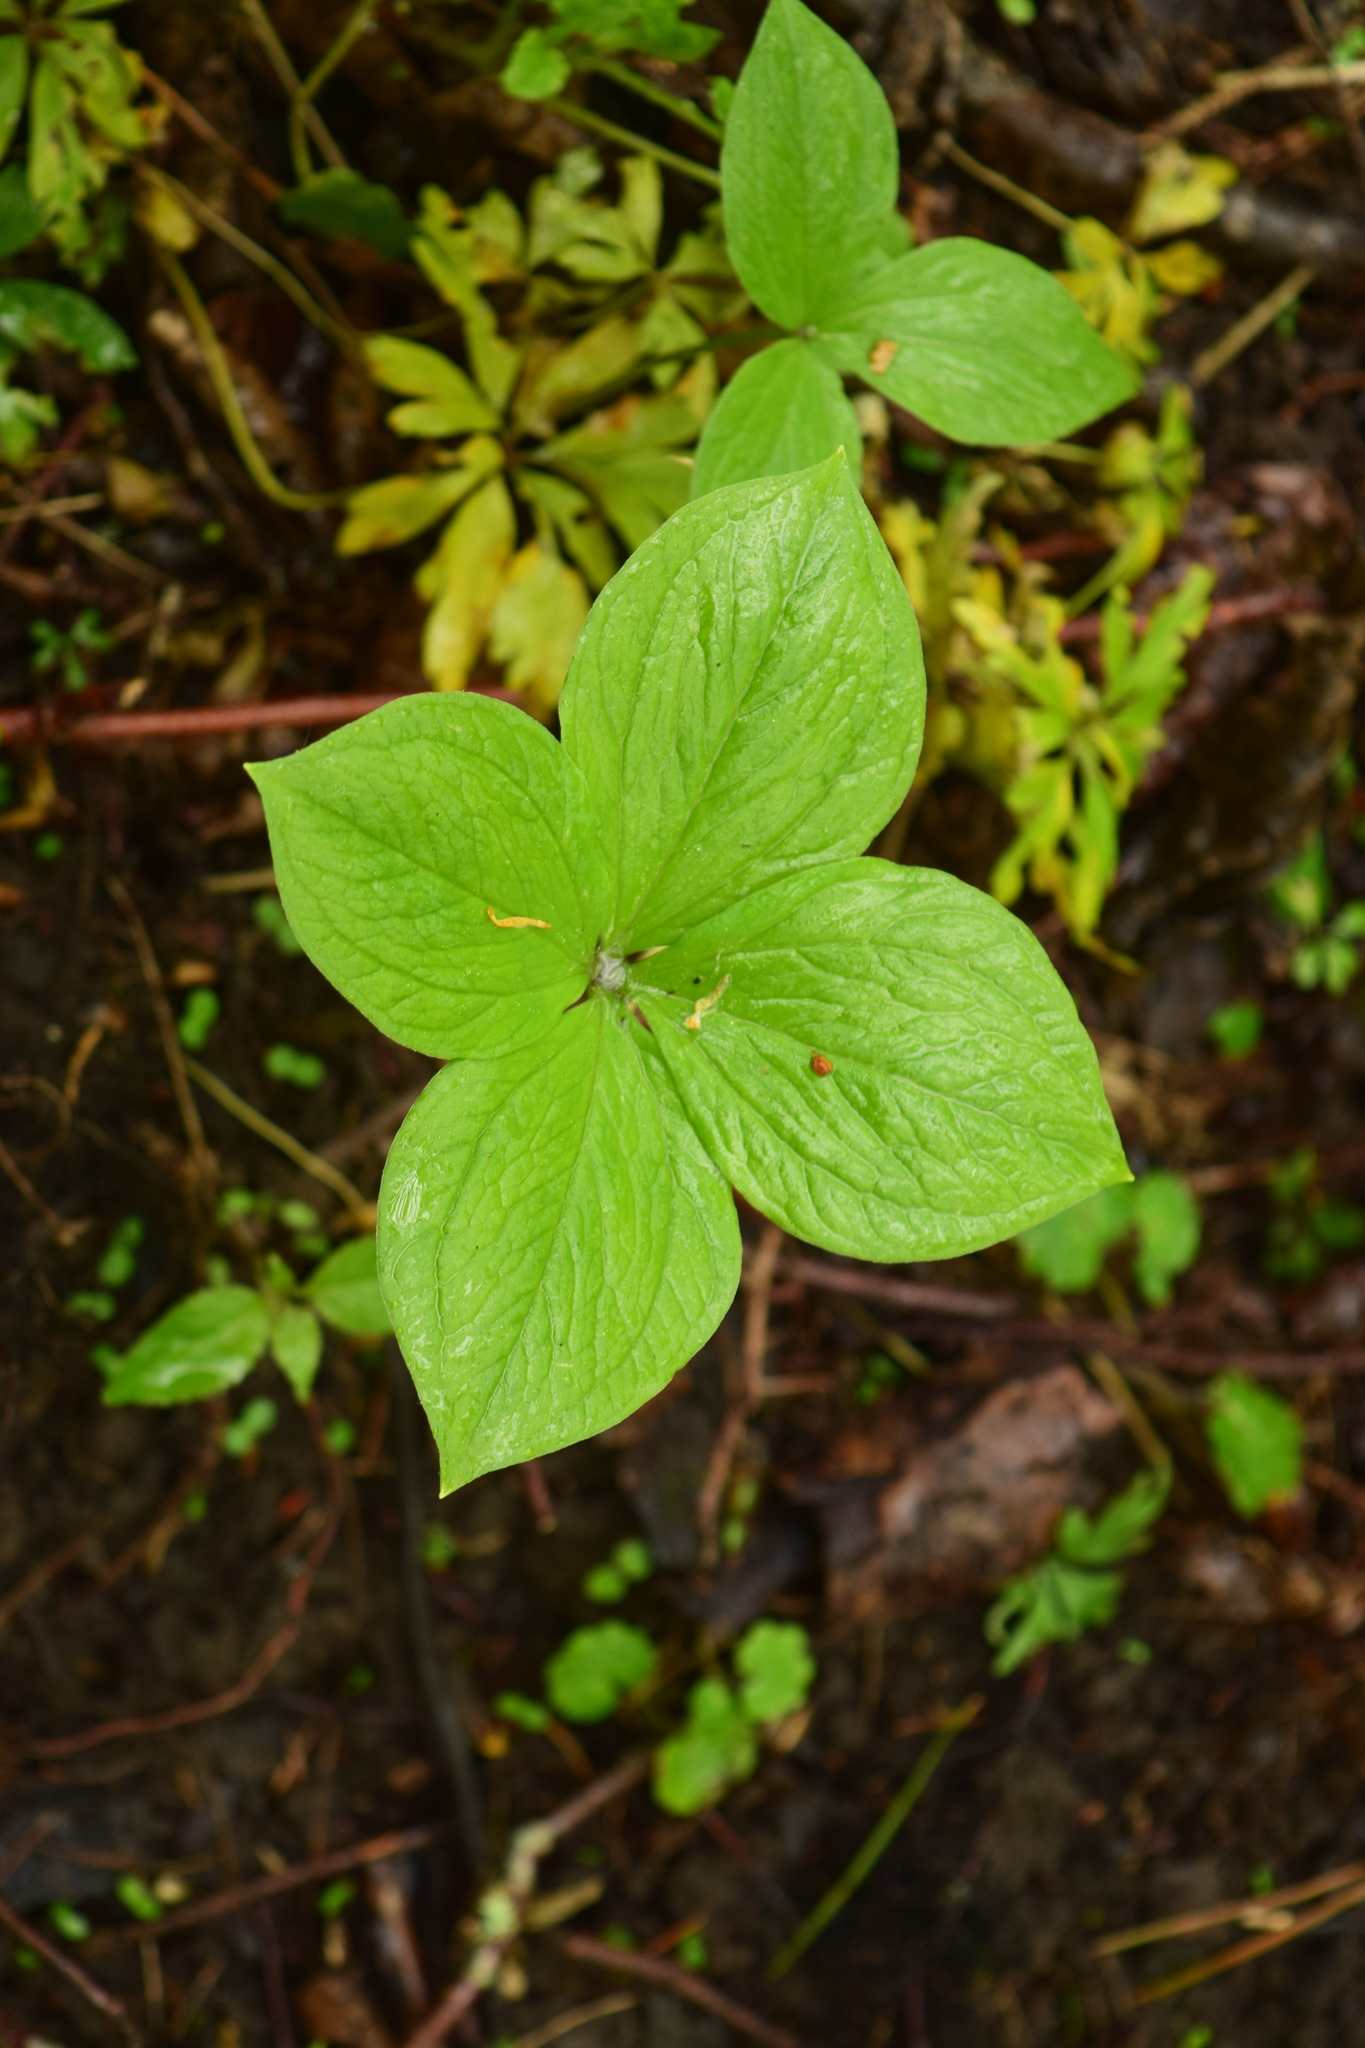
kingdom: Plantae
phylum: Tracheophyta
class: Liliopsida
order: Liliales
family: Melanthiaceae
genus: Paris
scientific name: Paris quadrifolia
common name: Herb-paris
